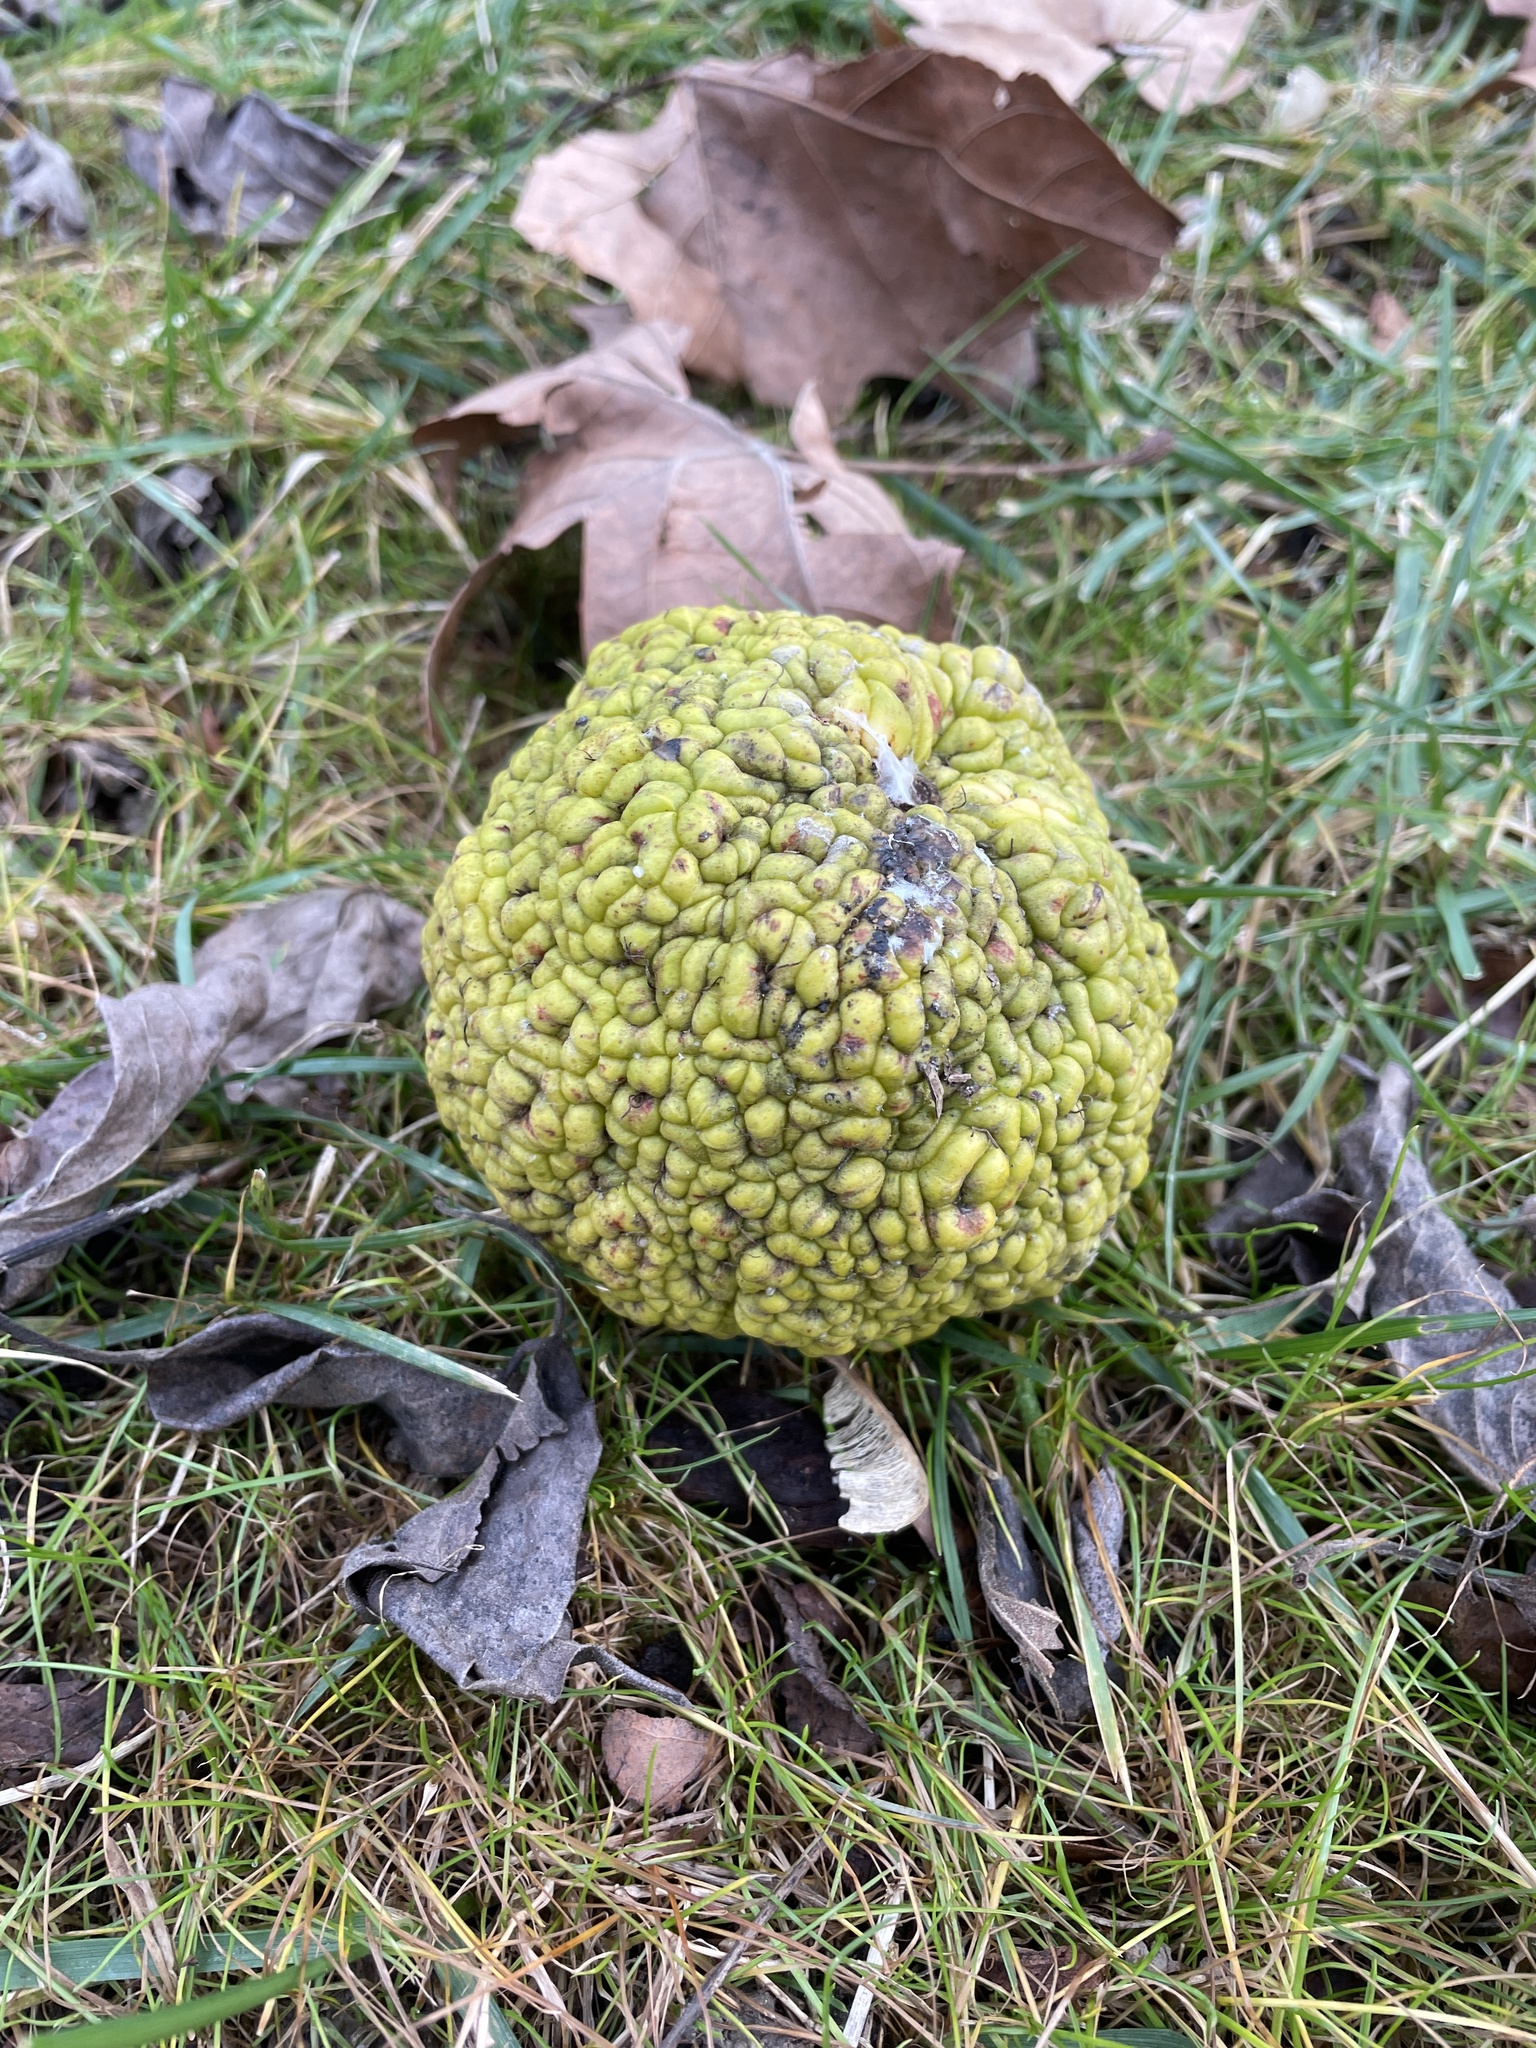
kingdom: Plantae
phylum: Tracheophyta
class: Magnoliopsida
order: Rosales
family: Moraceae
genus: Maclura
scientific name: Maclura pomifera
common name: Osage-orange
